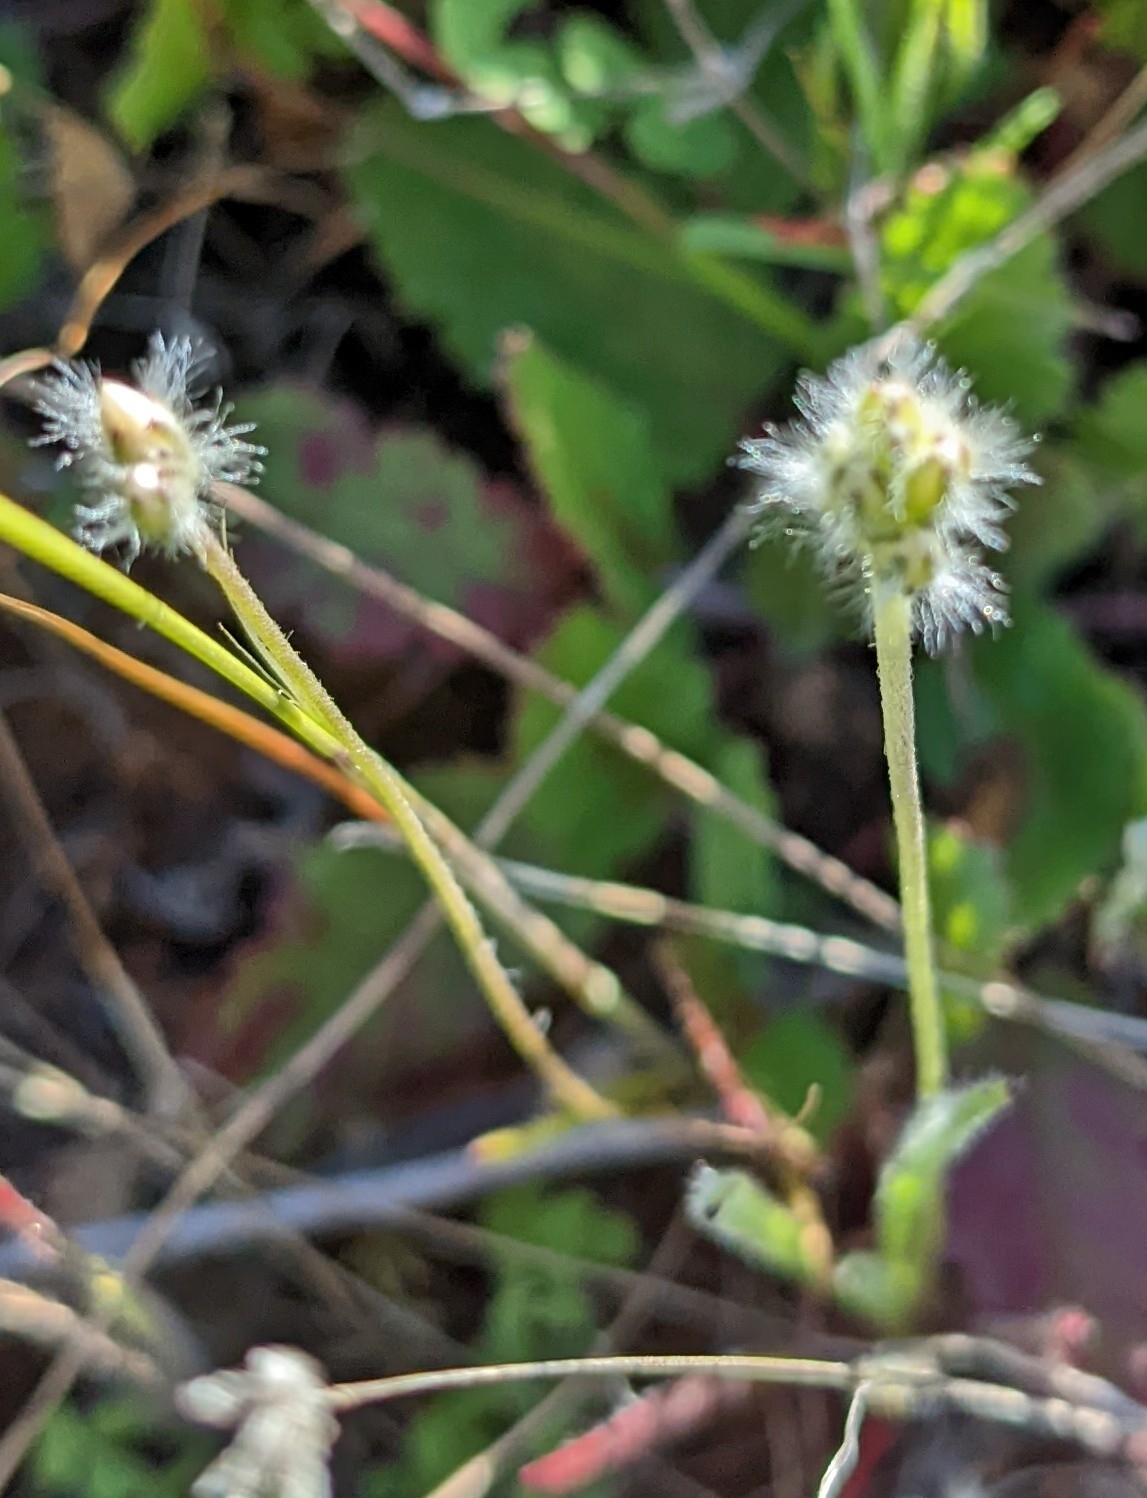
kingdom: Plantae
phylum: Tracheophyta
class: Magnoliopsida
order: Lamiales
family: Plantaginaceae
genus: Plantago
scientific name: Plantago erecta
